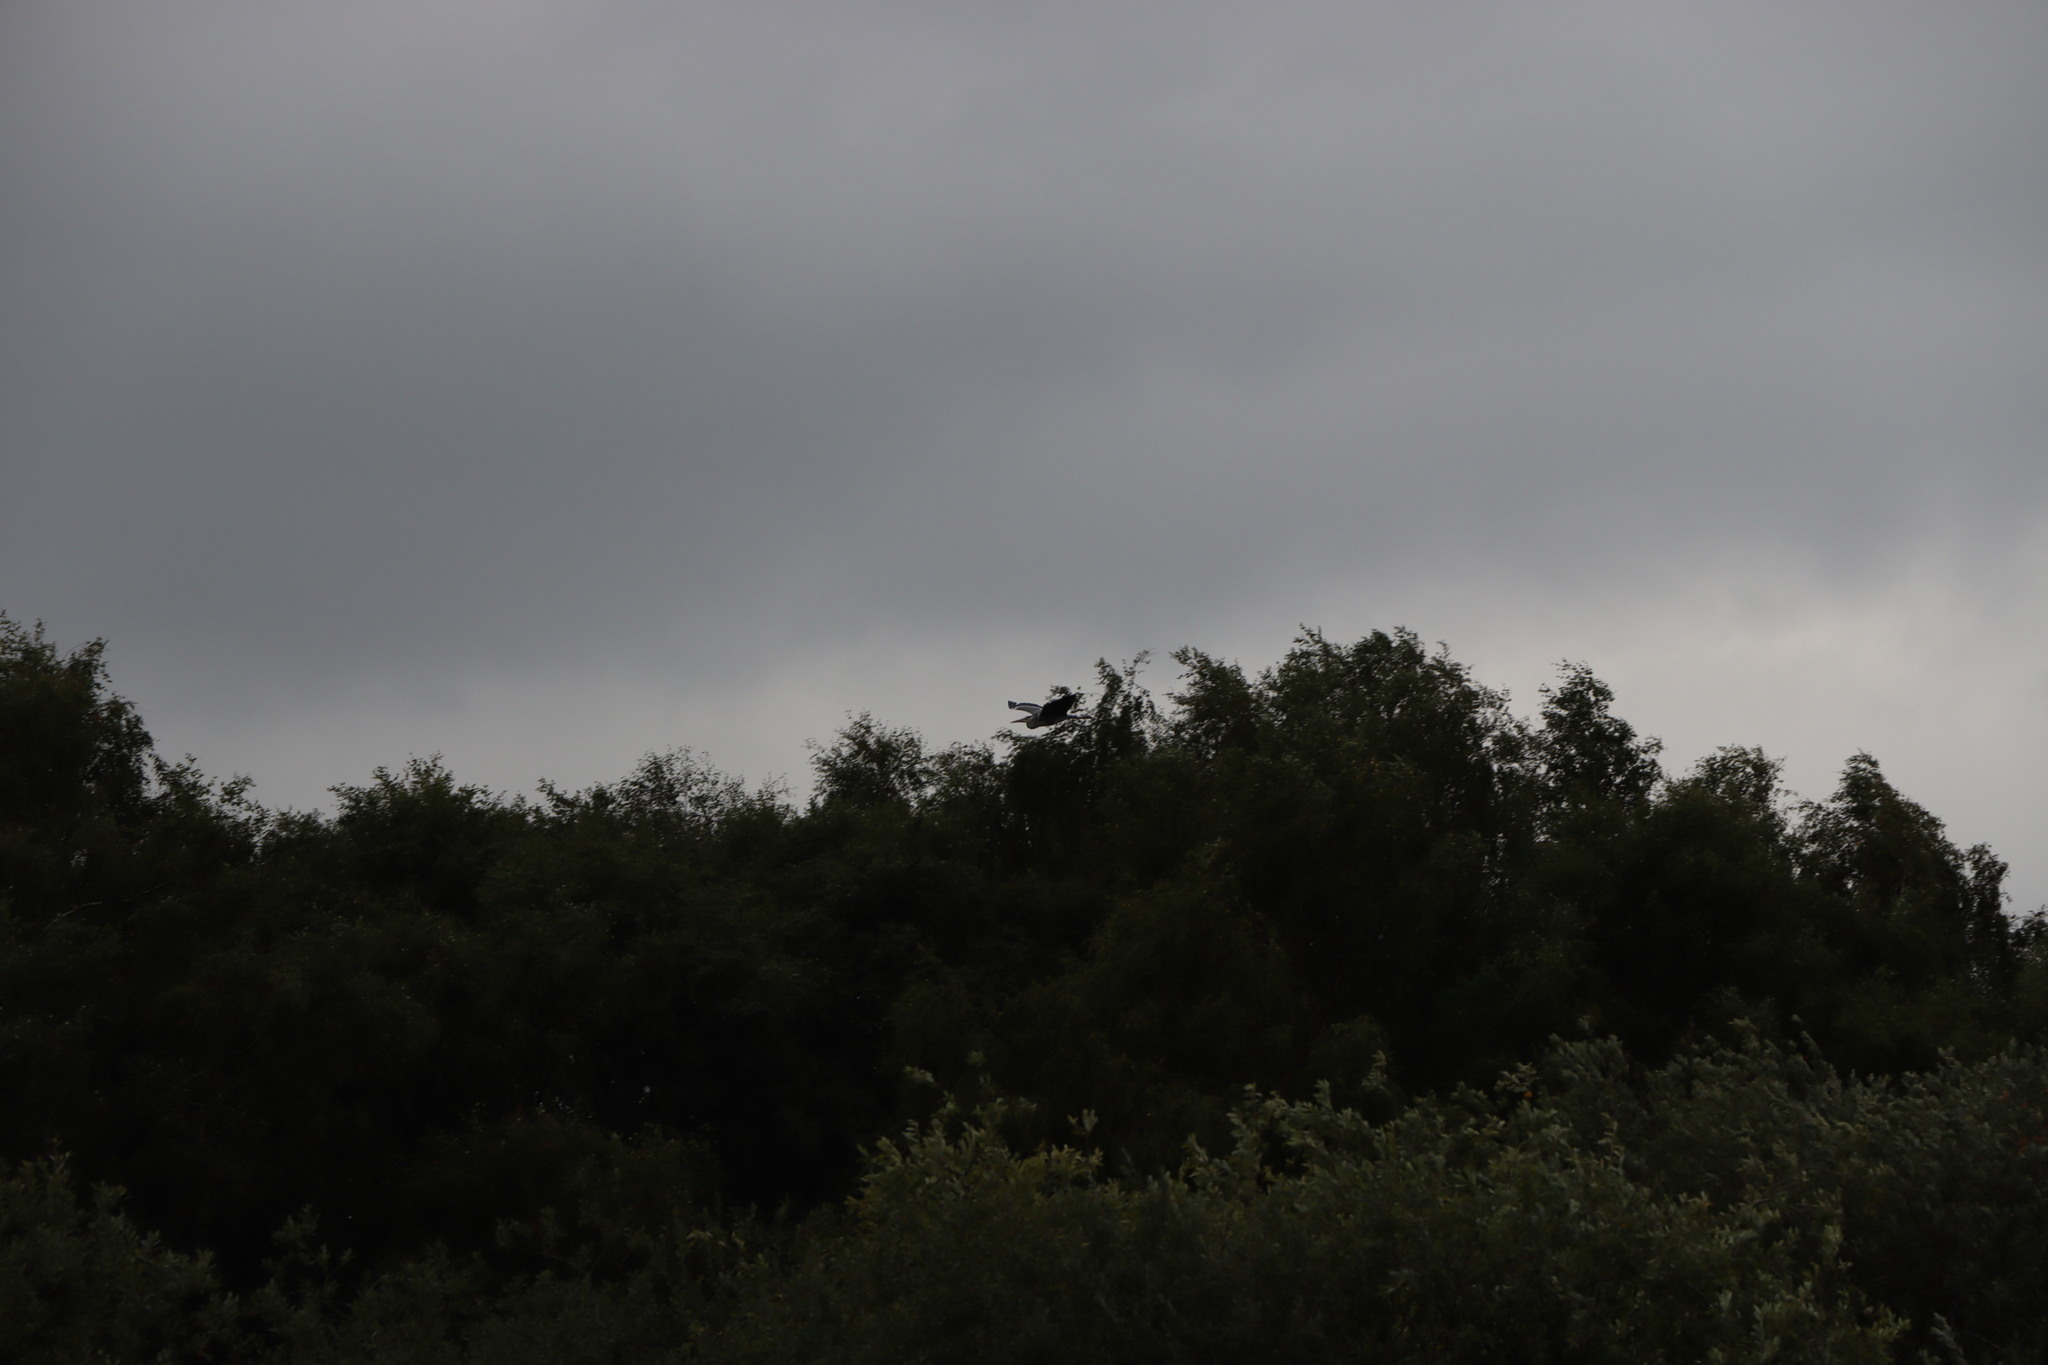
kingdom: Animalia
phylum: Chordata
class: Aves
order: Pelecaniformes
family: Ardeidae
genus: Ardea
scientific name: Ardea cinerea
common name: Grey heron
